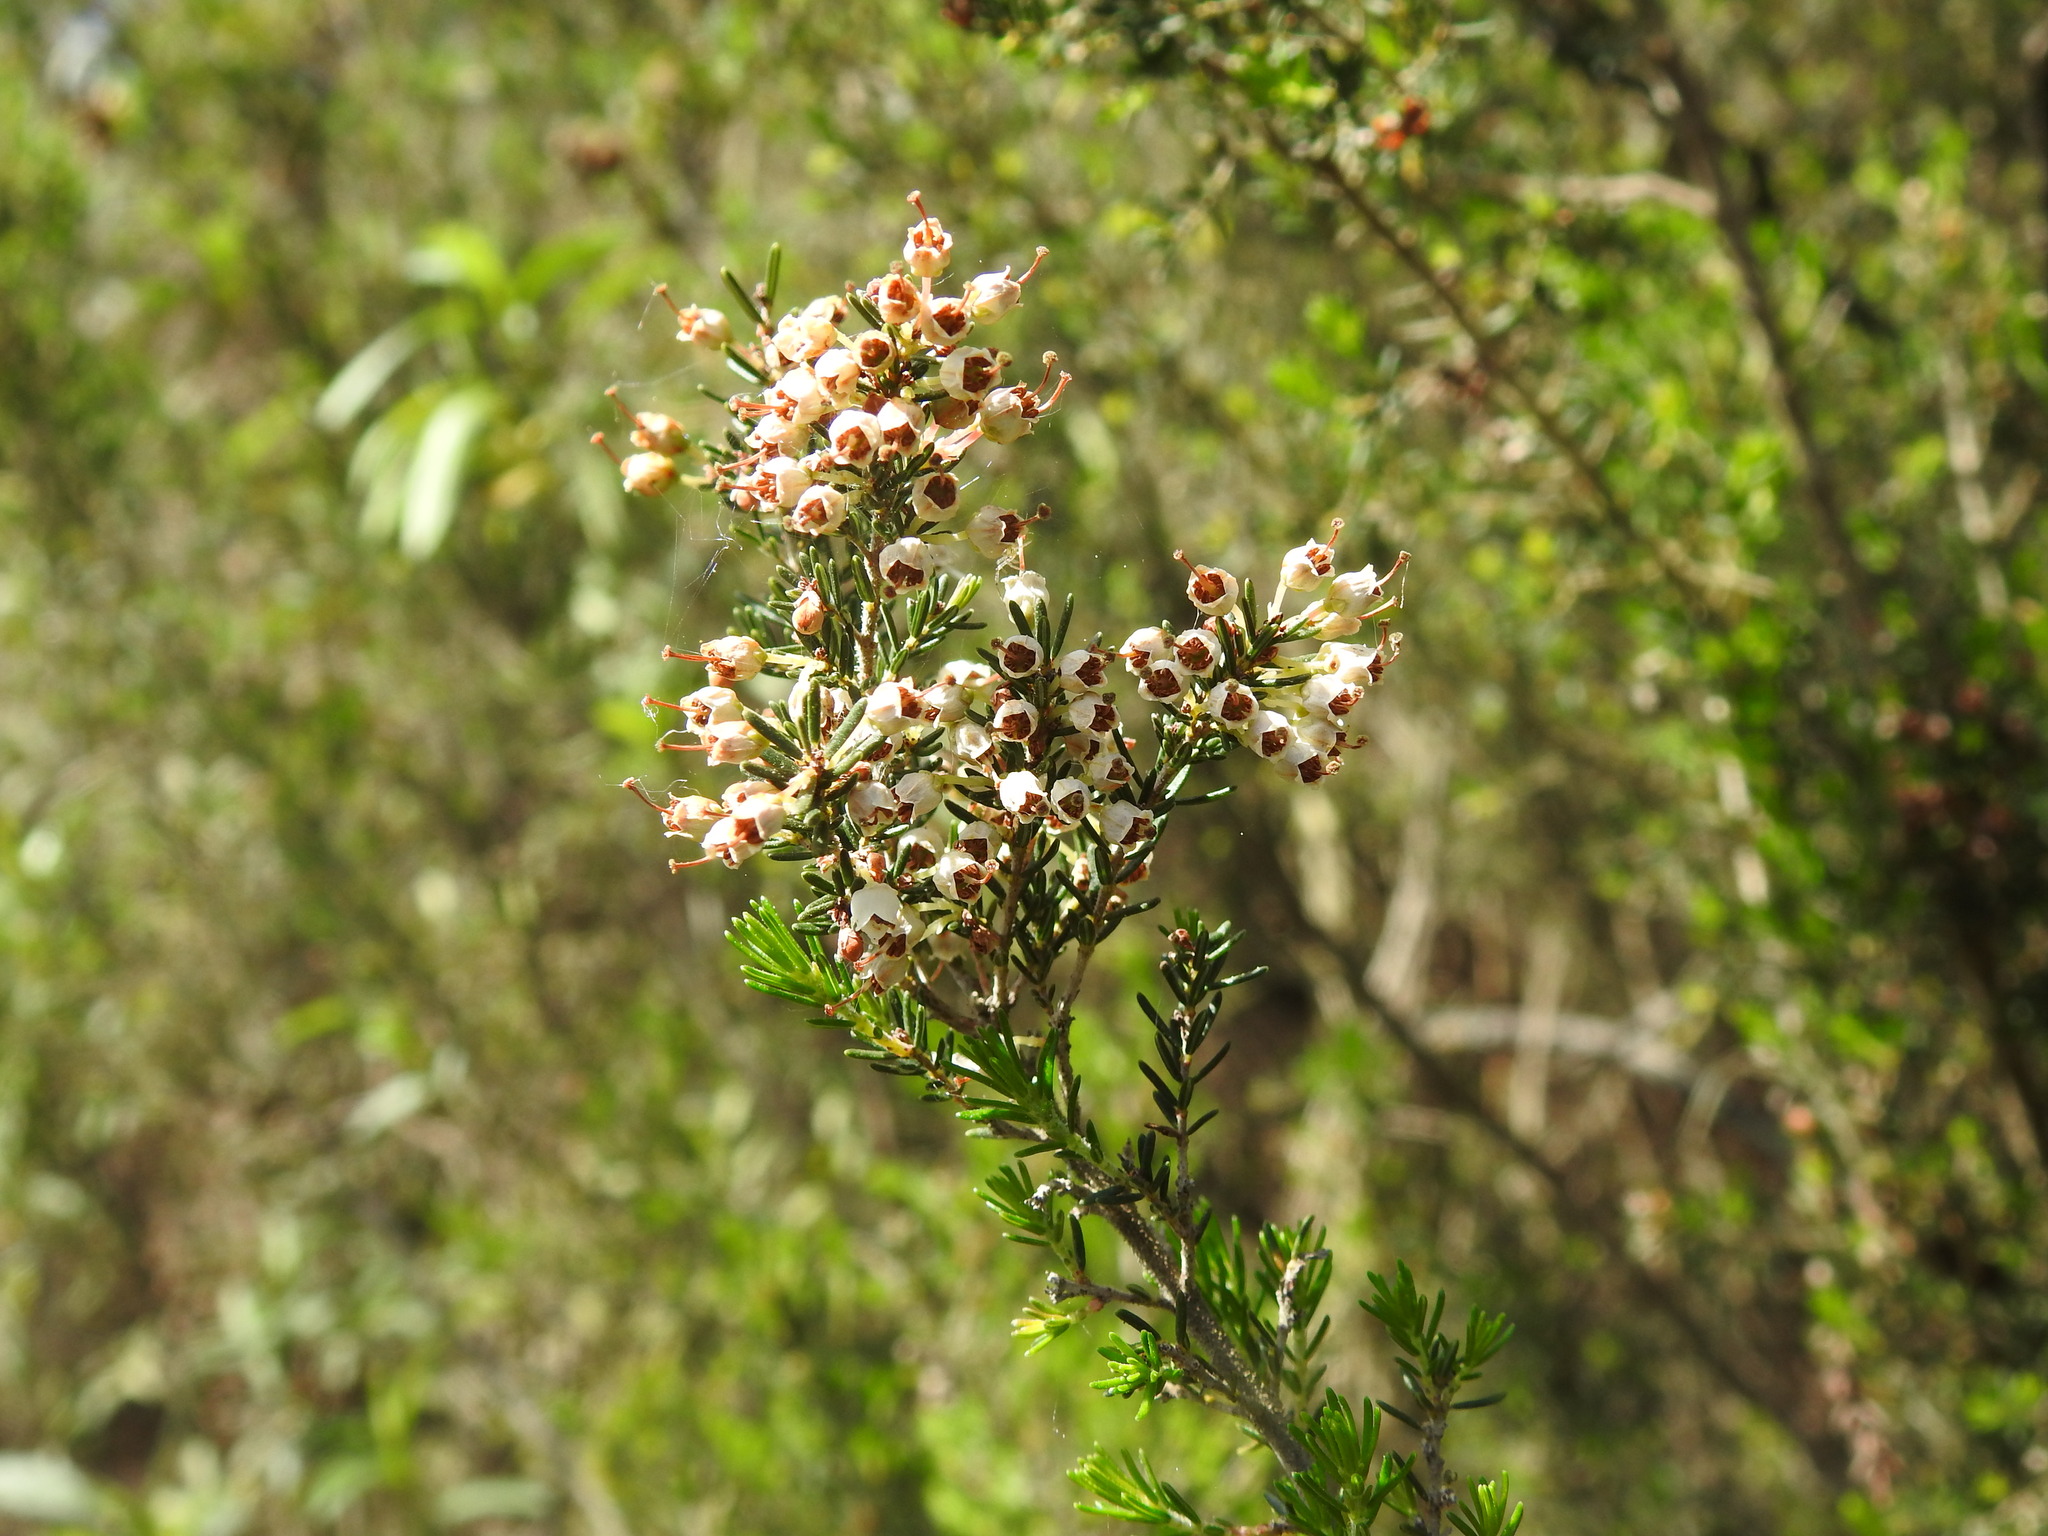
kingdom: Plantae
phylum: Tracheophyta
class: Magnoliopsida
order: Ericales
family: Ericaceae
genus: Erica
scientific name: Erica arborea
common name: Tree heath
